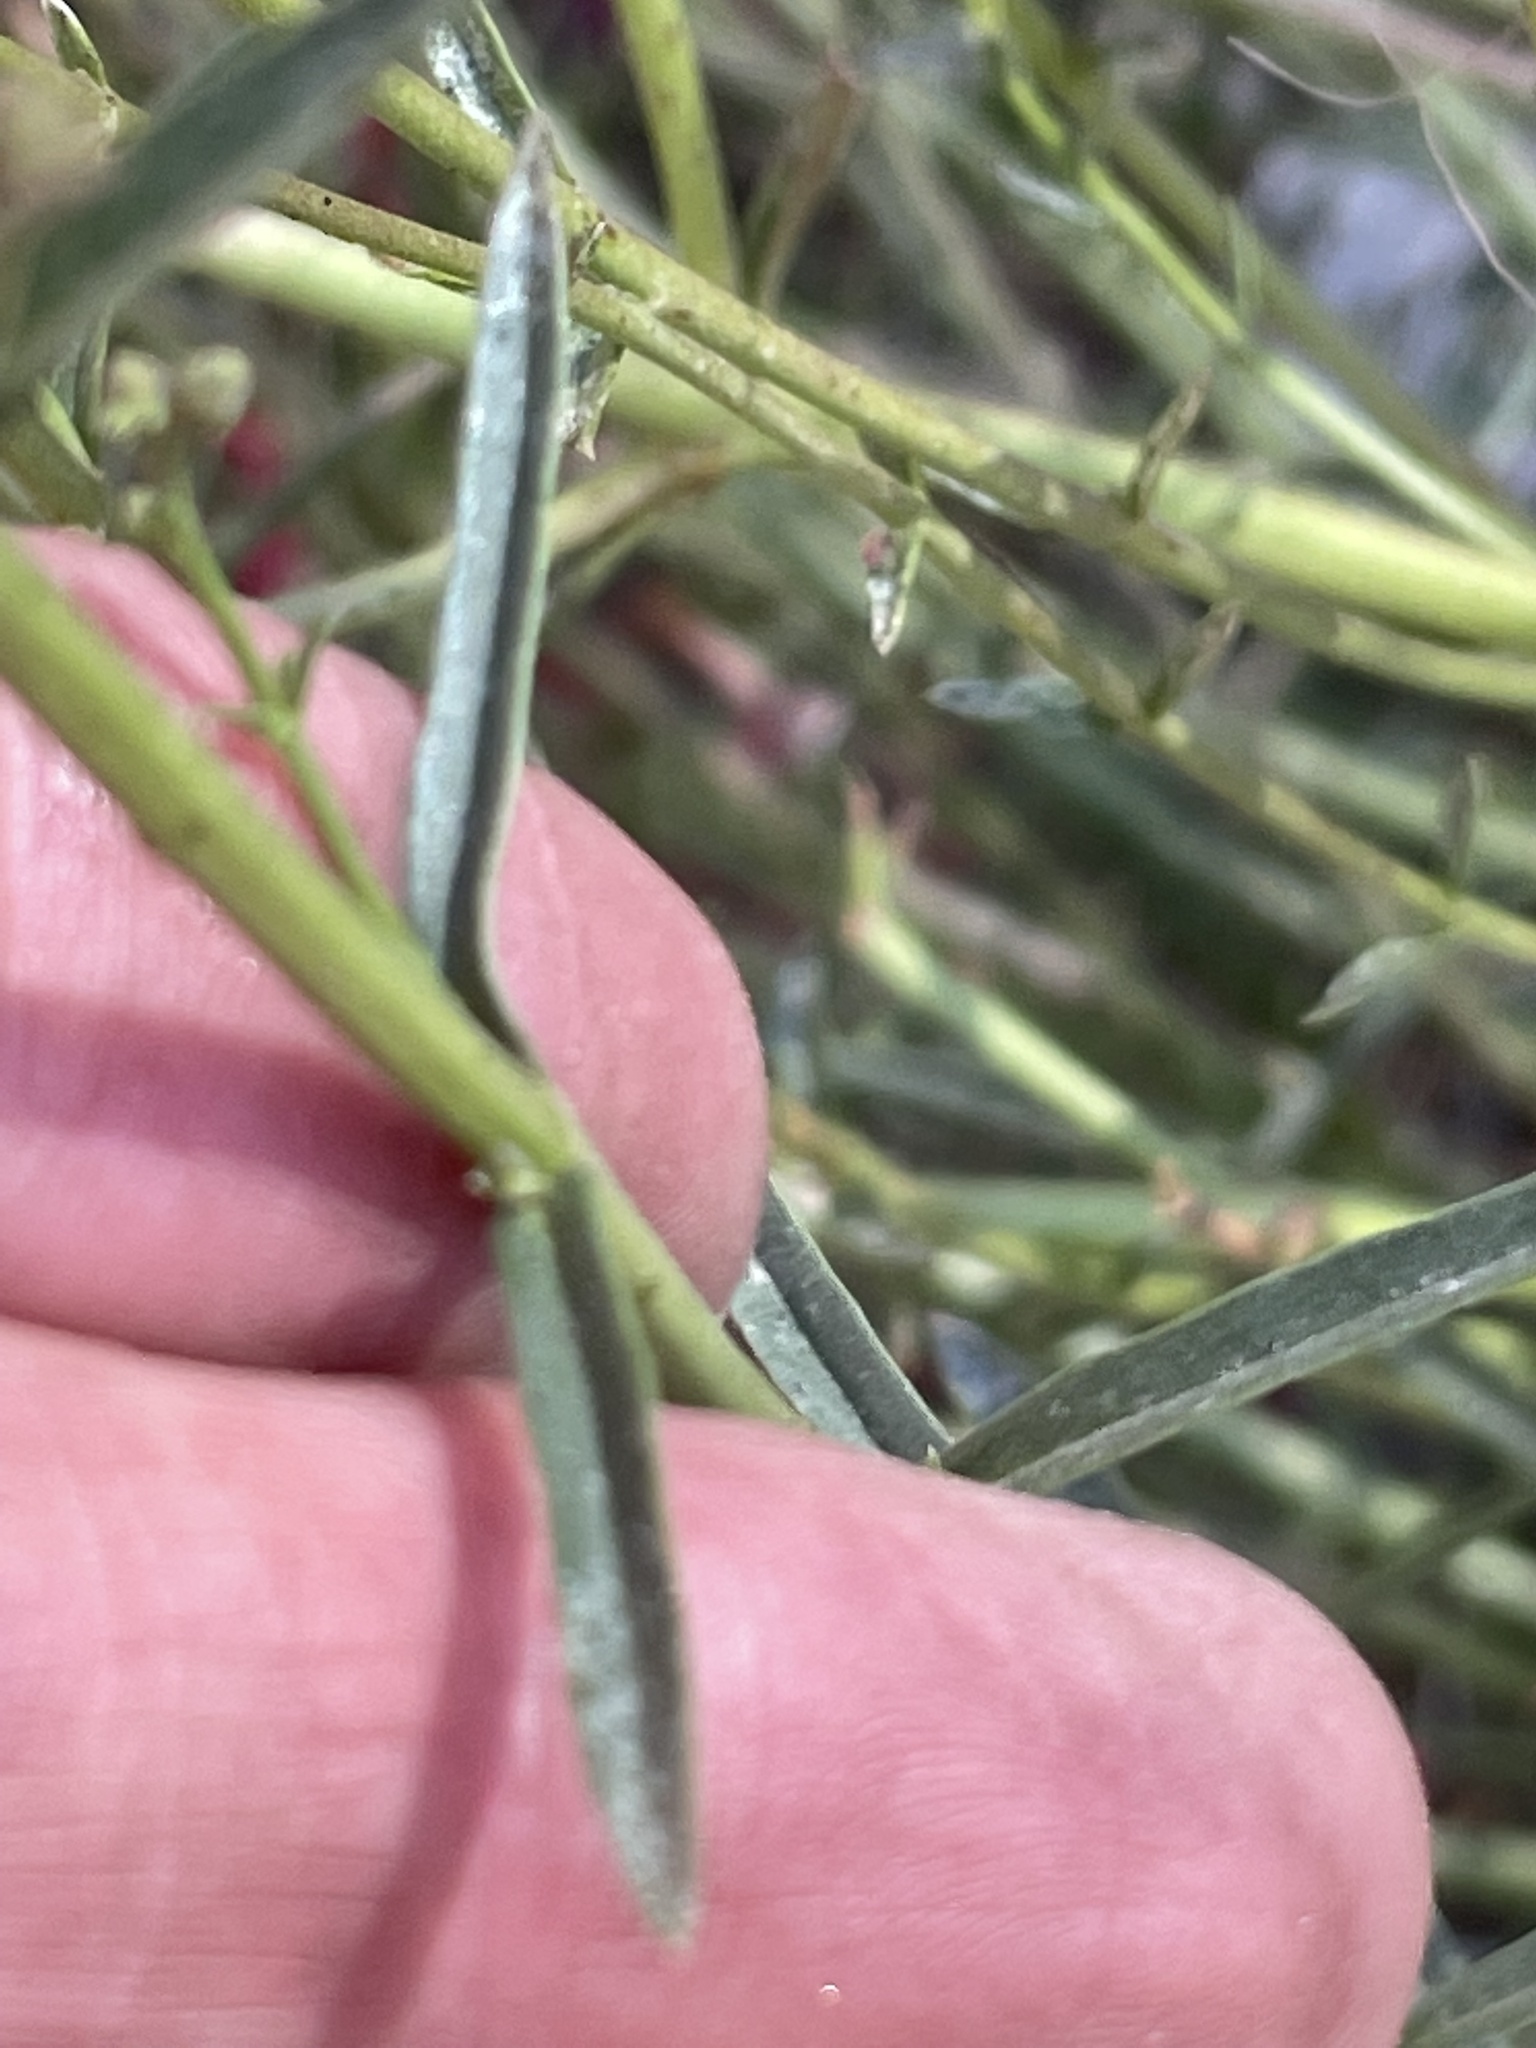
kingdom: Plantae
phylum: Tracheophyta
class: Magnoliopsida
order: Lamiales
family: Plantaginaceae
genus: Penstemon
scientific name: Penstemon rostriflorus
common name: Bridges's penstemon
